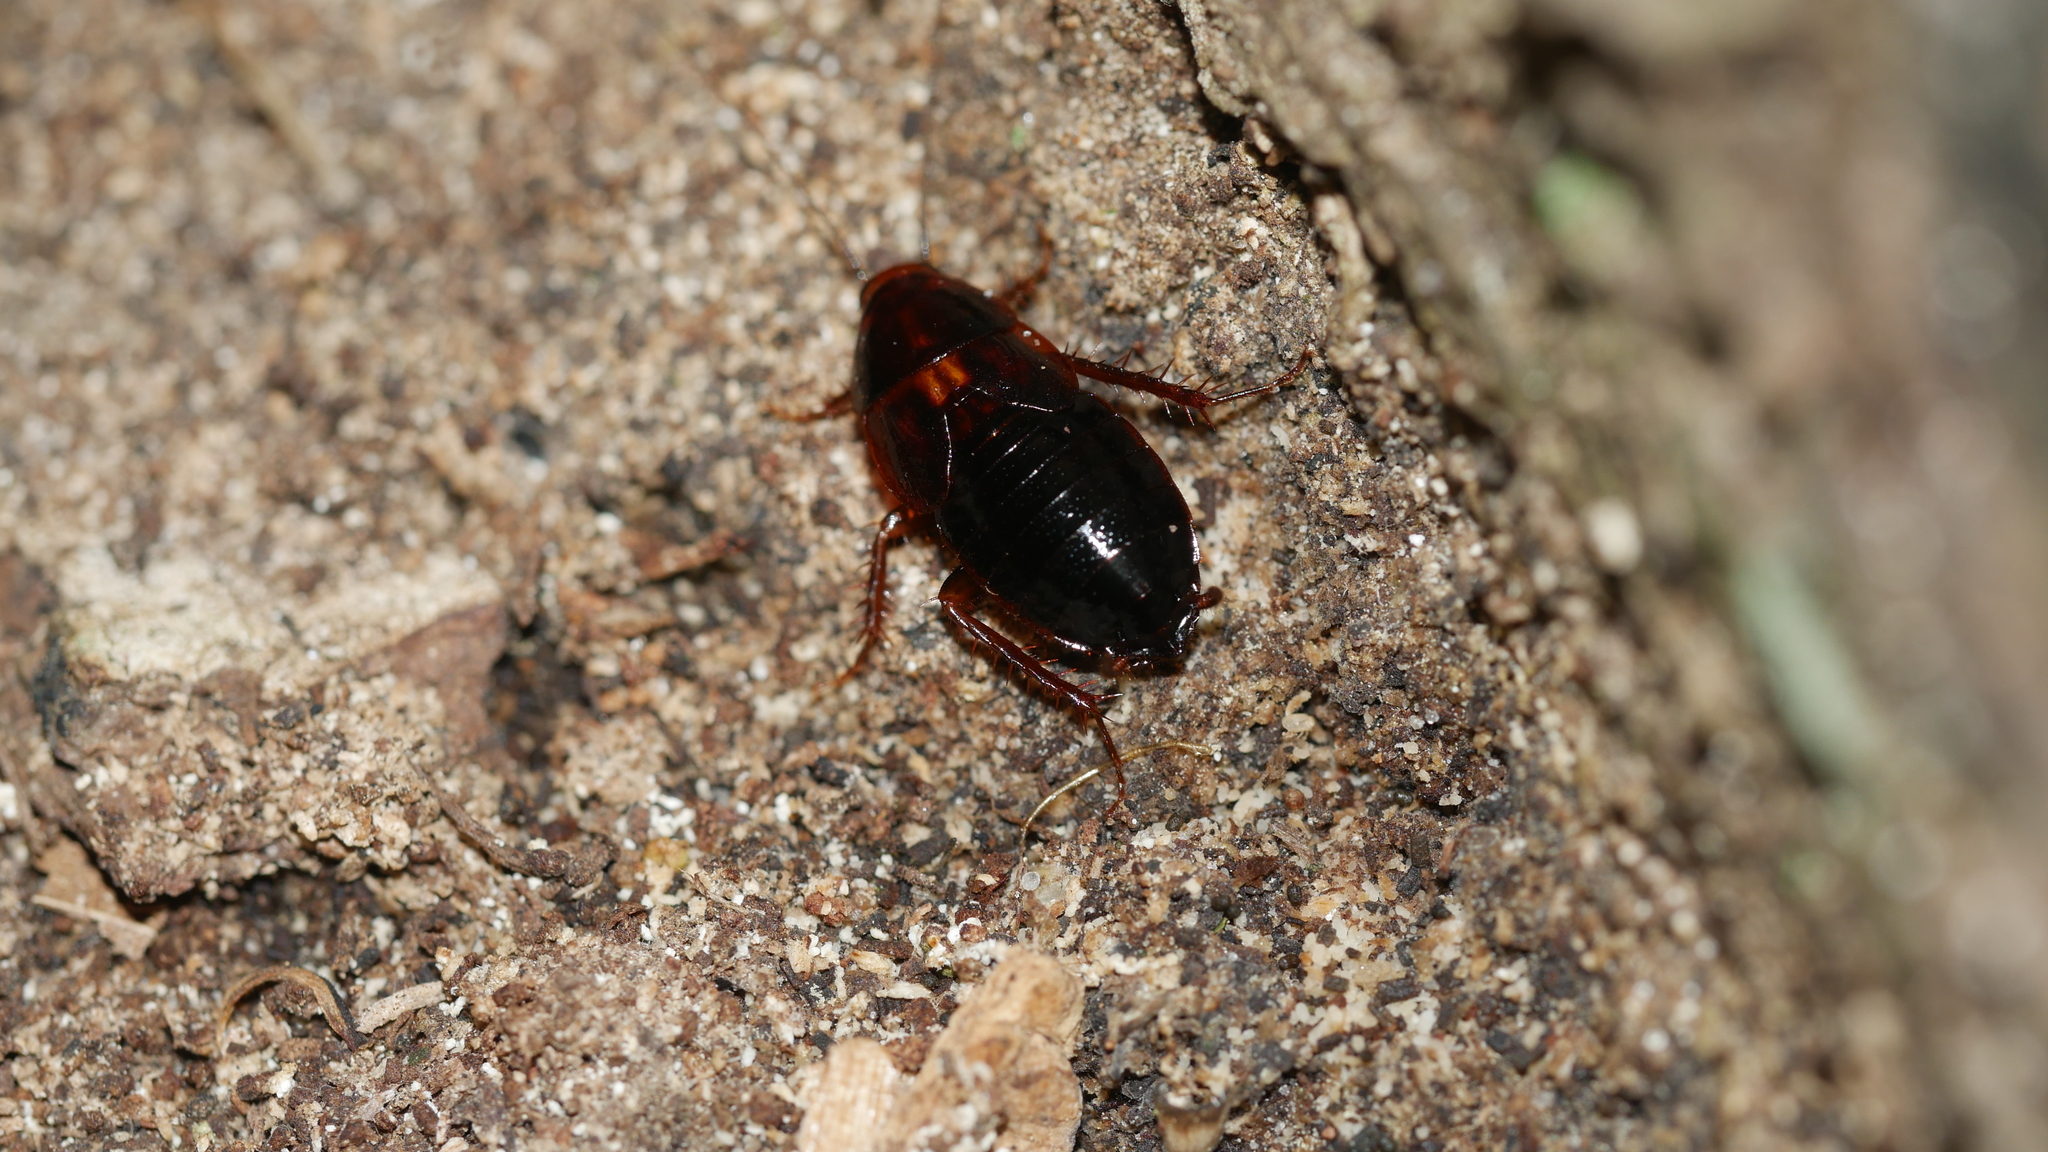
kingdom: Animalia
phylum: Arthropoda
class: Insecta
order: Blattodea
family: Ectobiidae
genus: Parcoblatta
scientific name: Parcoblatta uhleriana
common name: Uhler's wood cockroach
